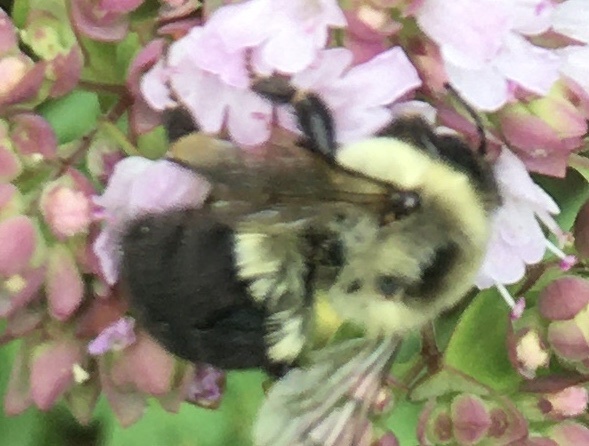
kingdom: Animalia
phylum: Arthropoda
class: Insecta
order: Hymenoptera
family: Apidae
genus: Bombus
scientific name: Bombus impatiens
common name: Common eastern bumble bee
